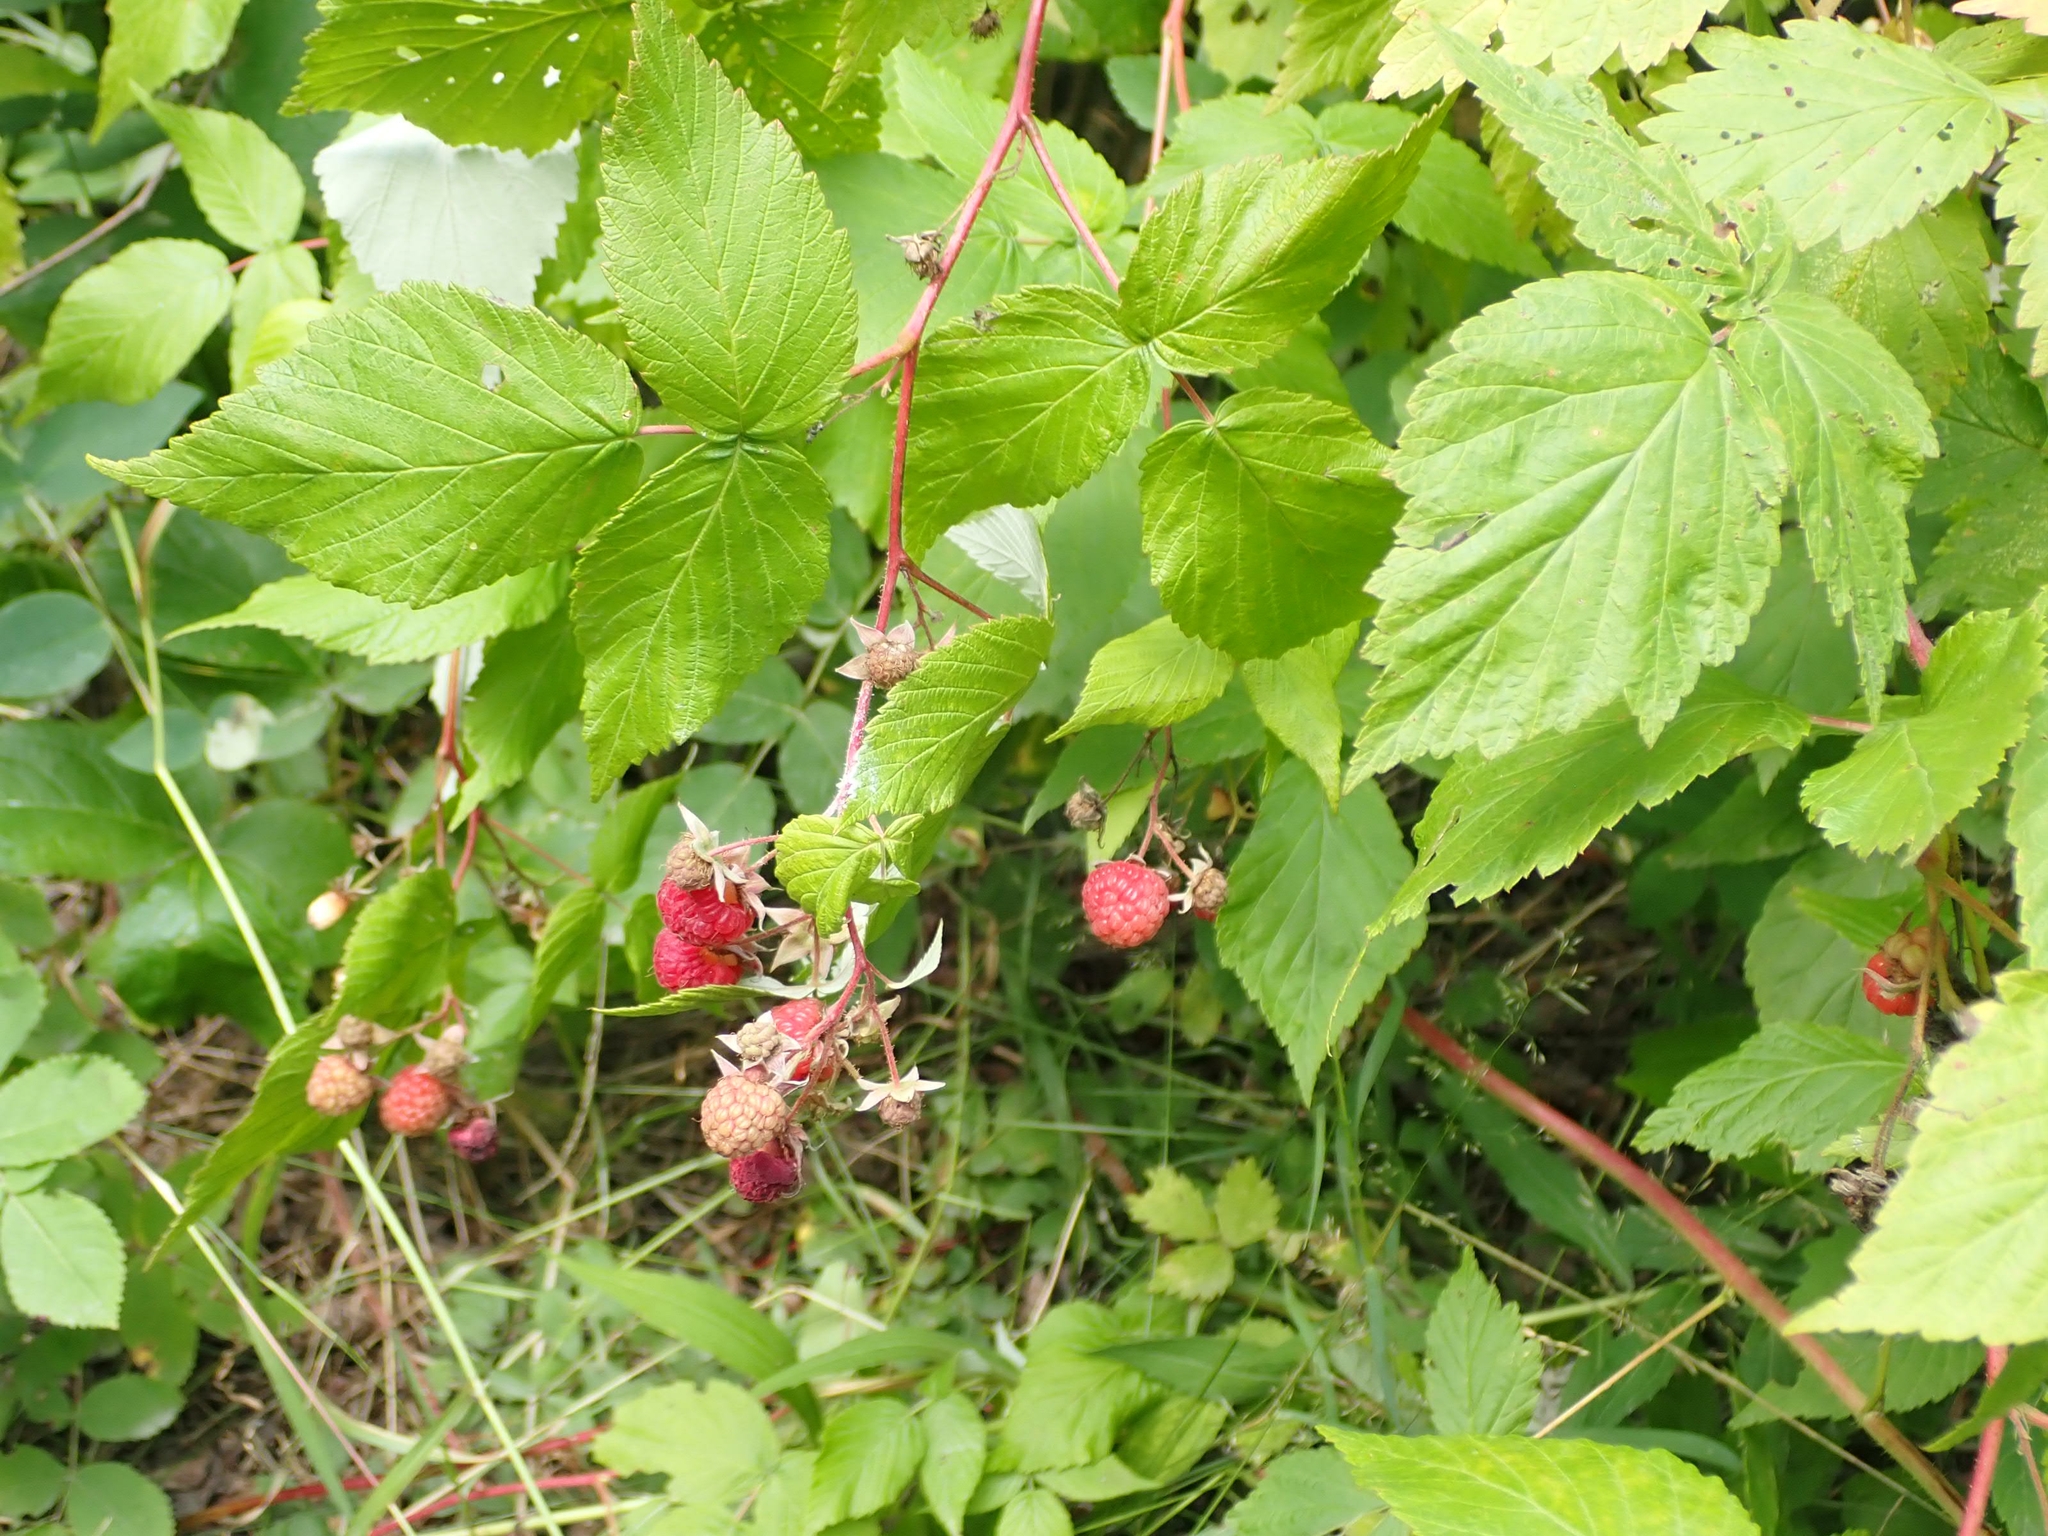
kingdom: Plantae
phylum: Tracheophyta
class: Magnoliopsida
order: Rosales
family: Rosaceae
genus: Rubus
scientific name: Rubus idaeus
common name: Raspberry
